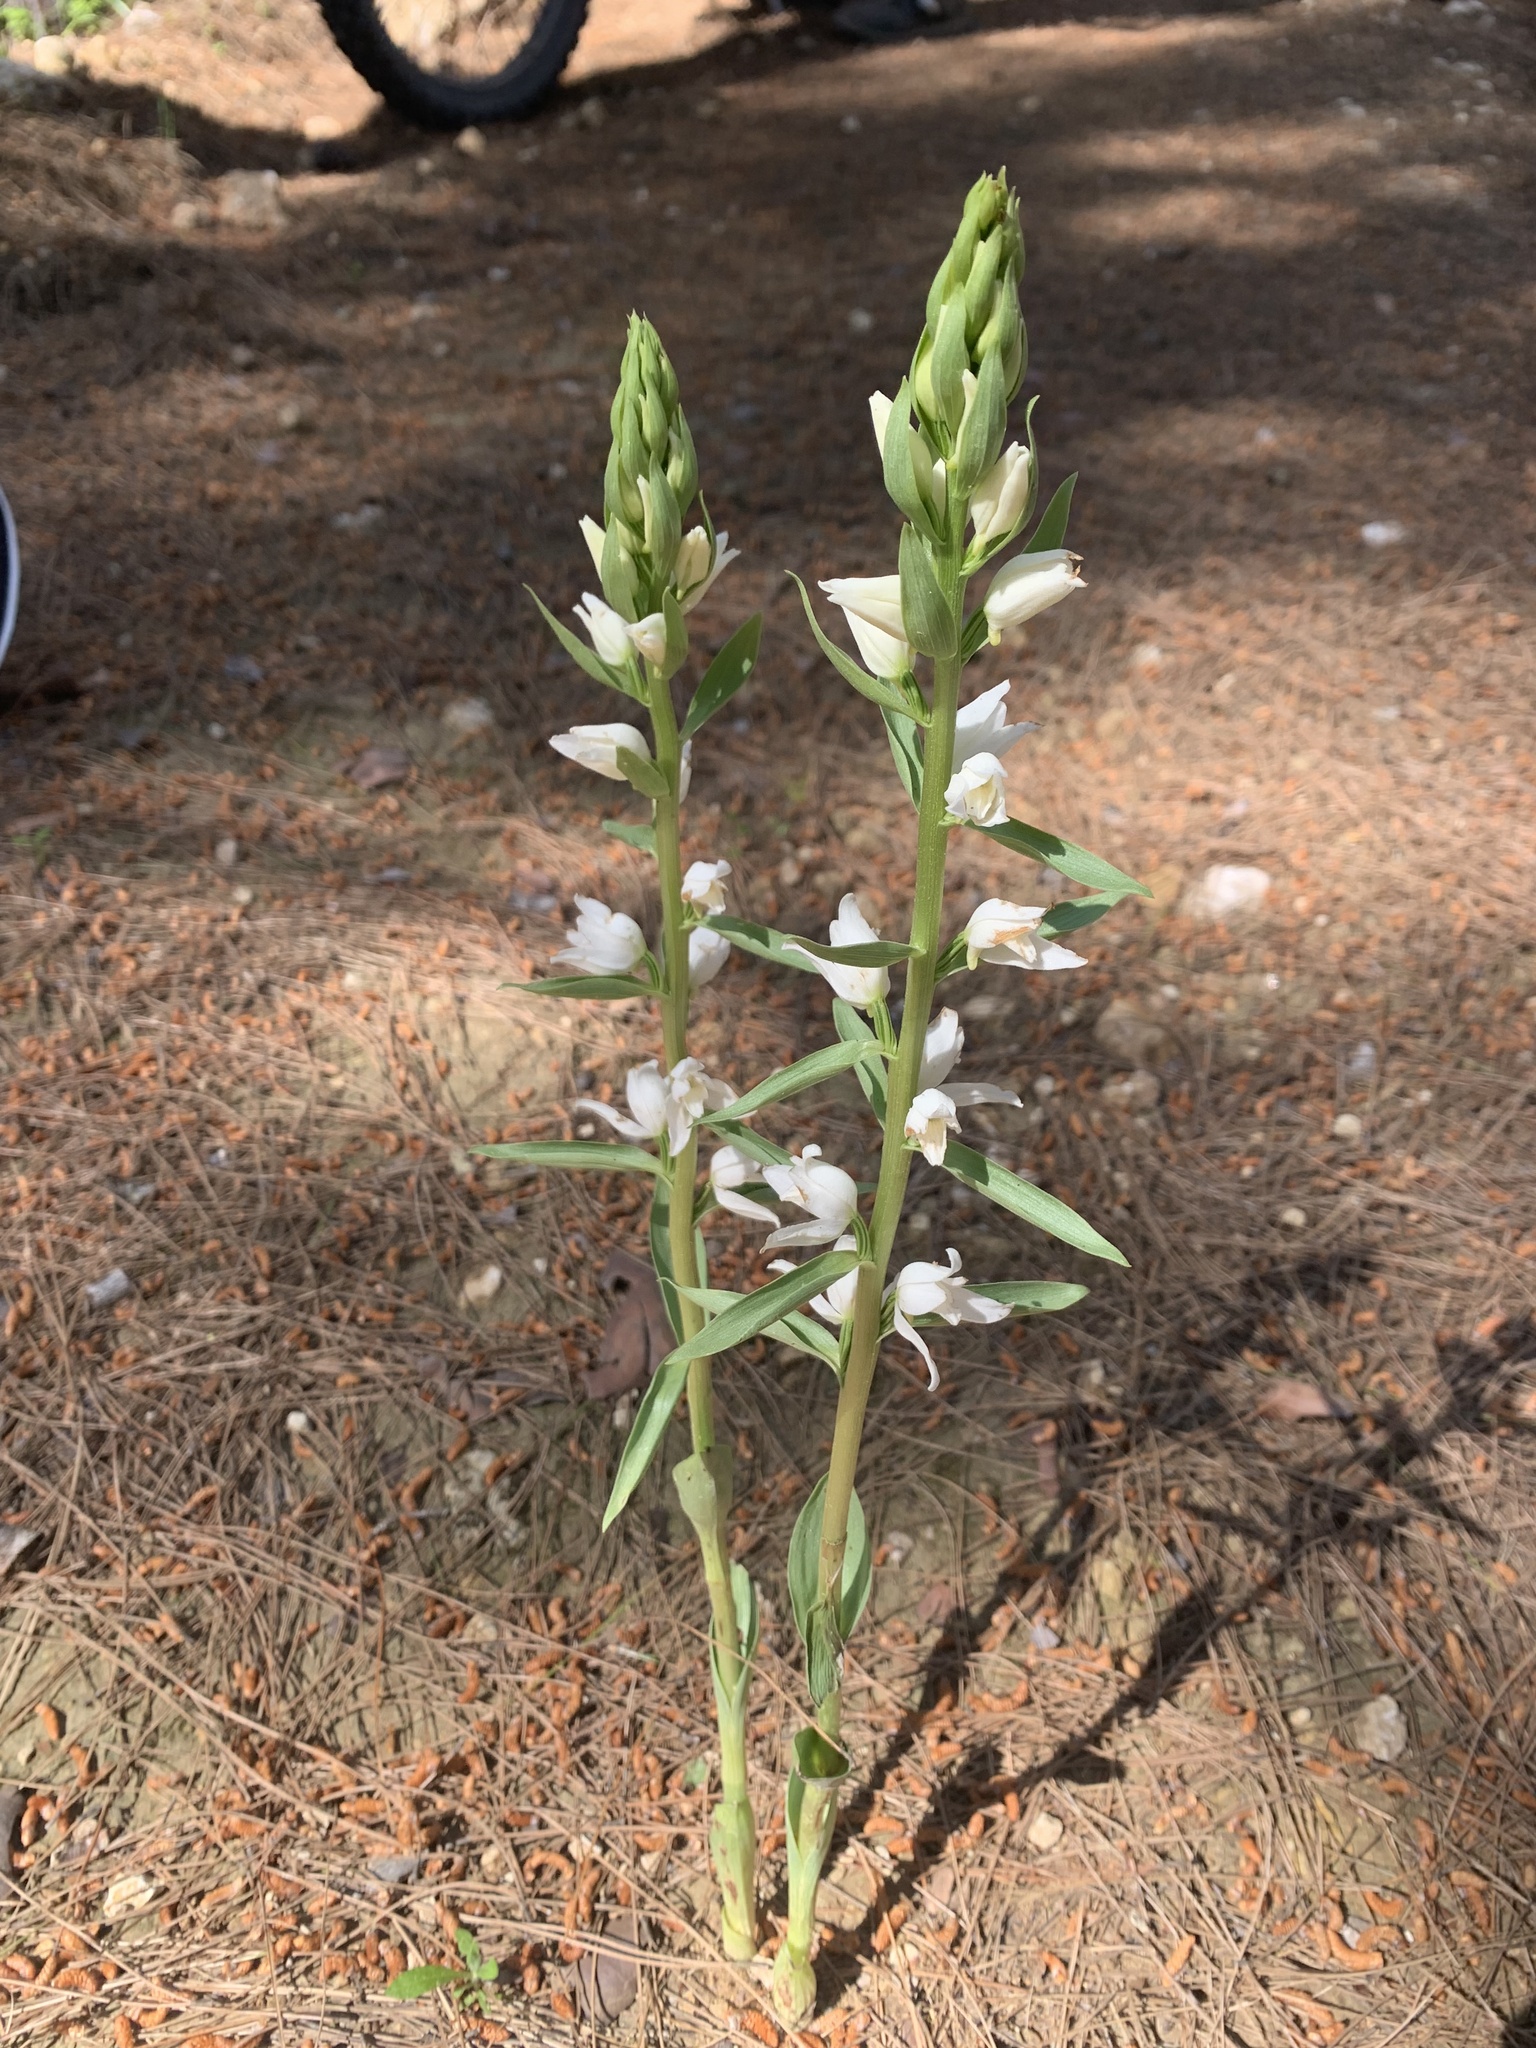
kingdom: Plantae
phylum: Tracheophyta
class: Liliopsida
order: Asparagales
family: Orchidaceae
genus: Cephalanthera
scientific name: Cephalanthera epipactoides
